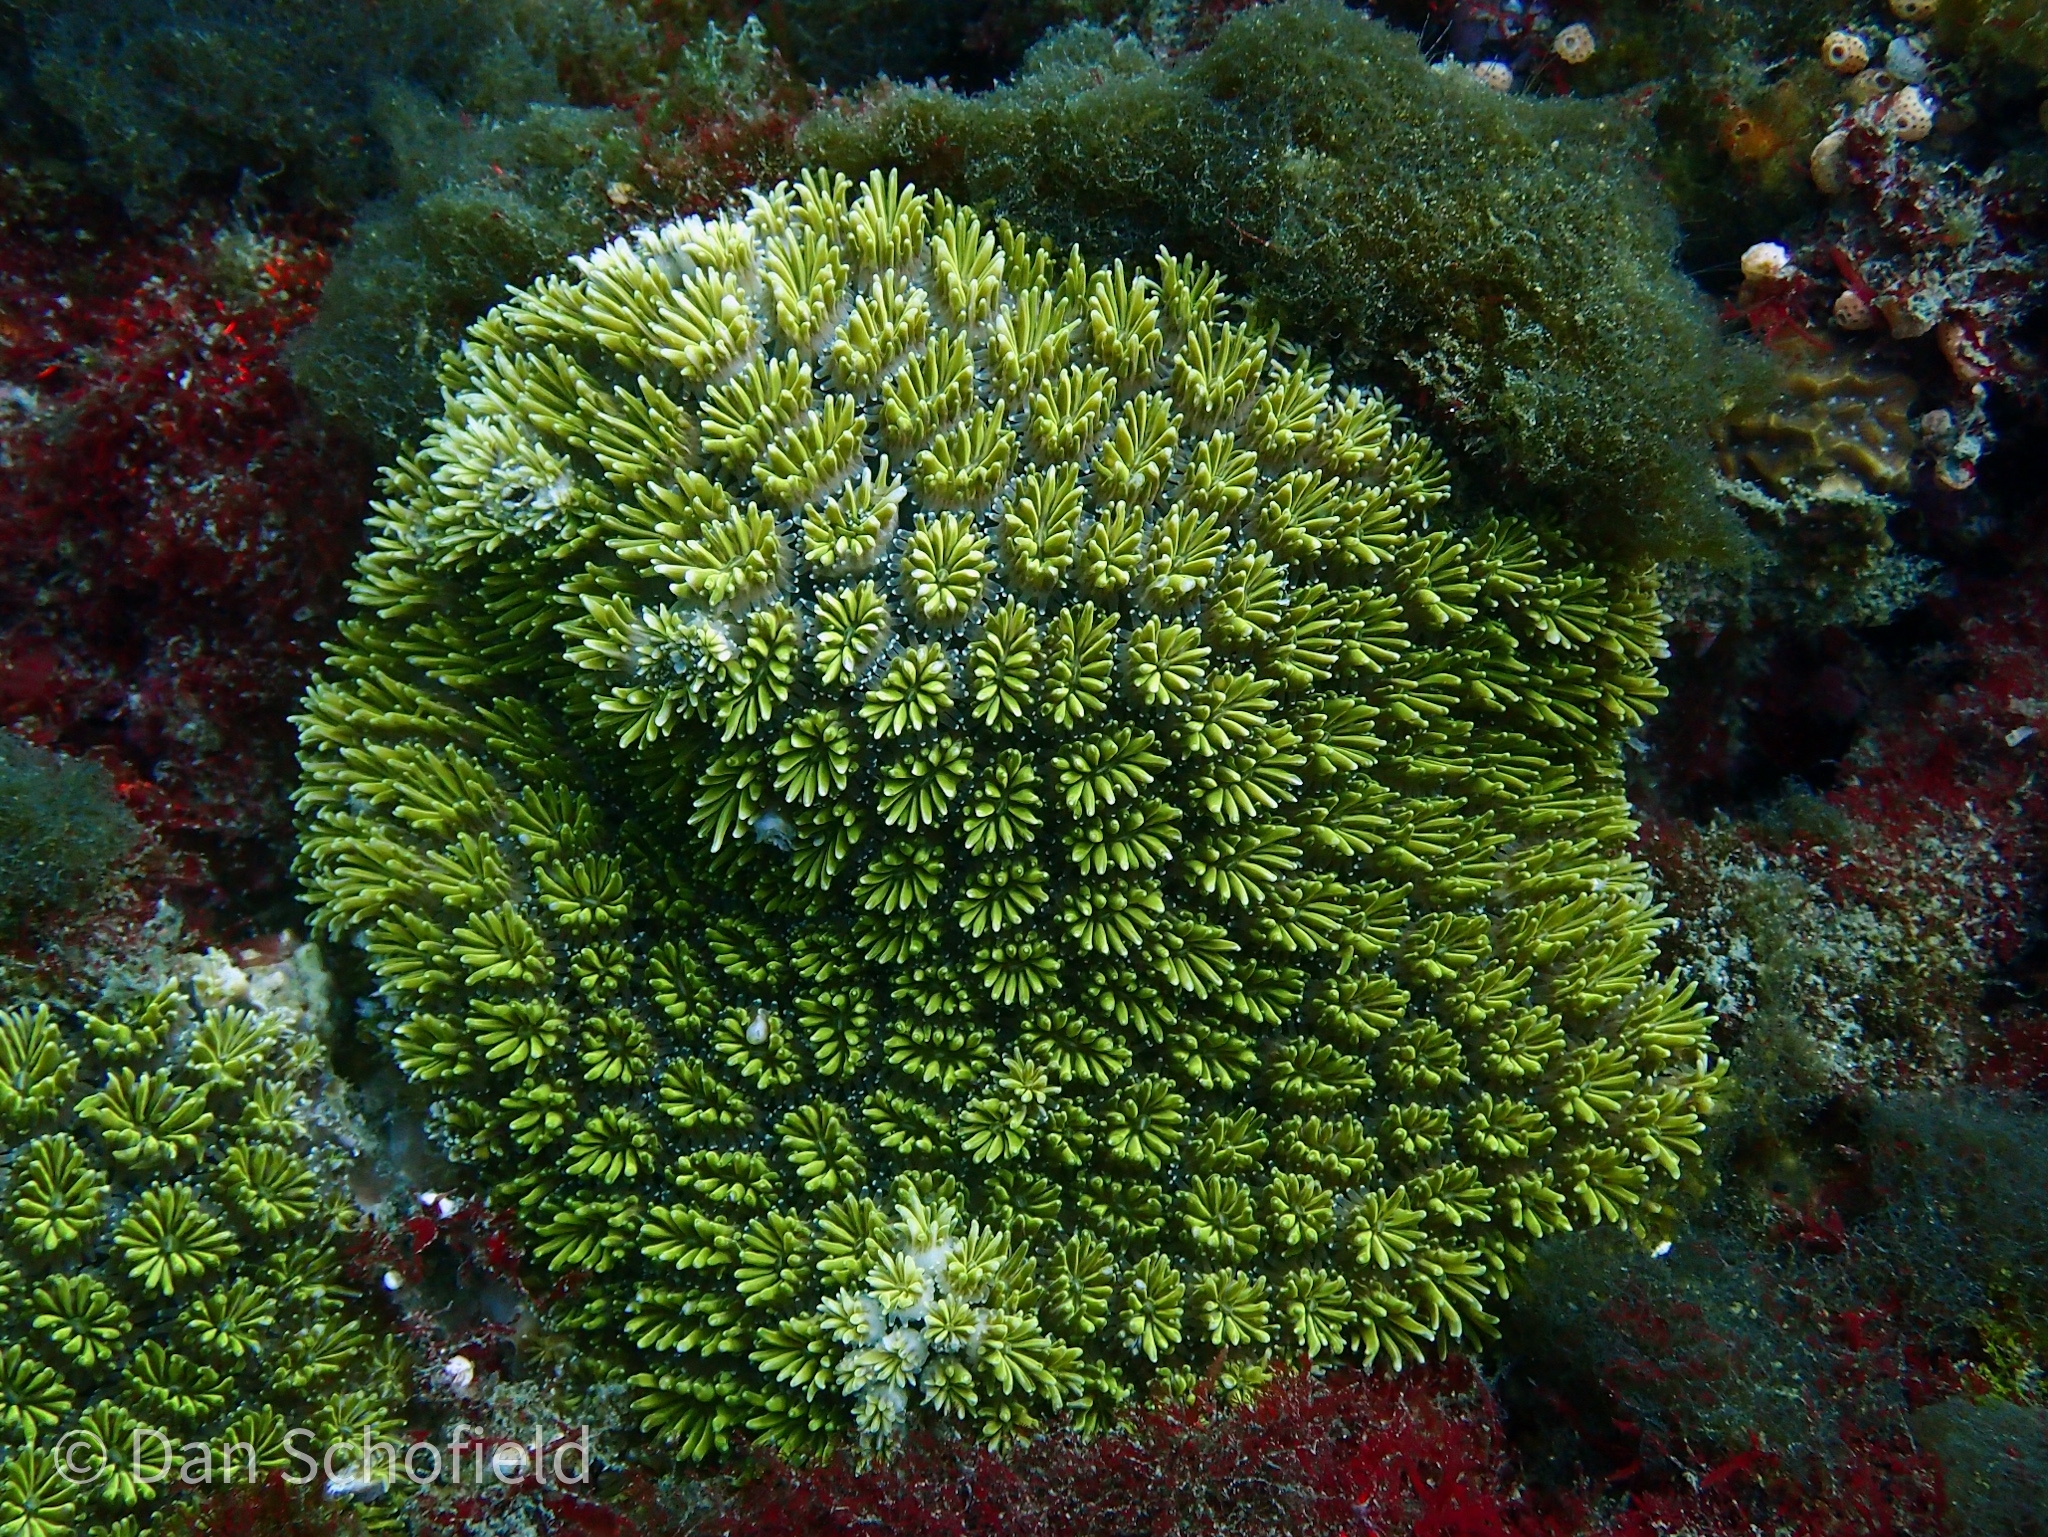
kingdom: Animalia
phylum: Cnidaria
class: Anthozoa
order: Scleractinia
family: Euphylliidae
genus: Galaxea
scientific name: Galaxea fascicularis
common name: Octopus coral
